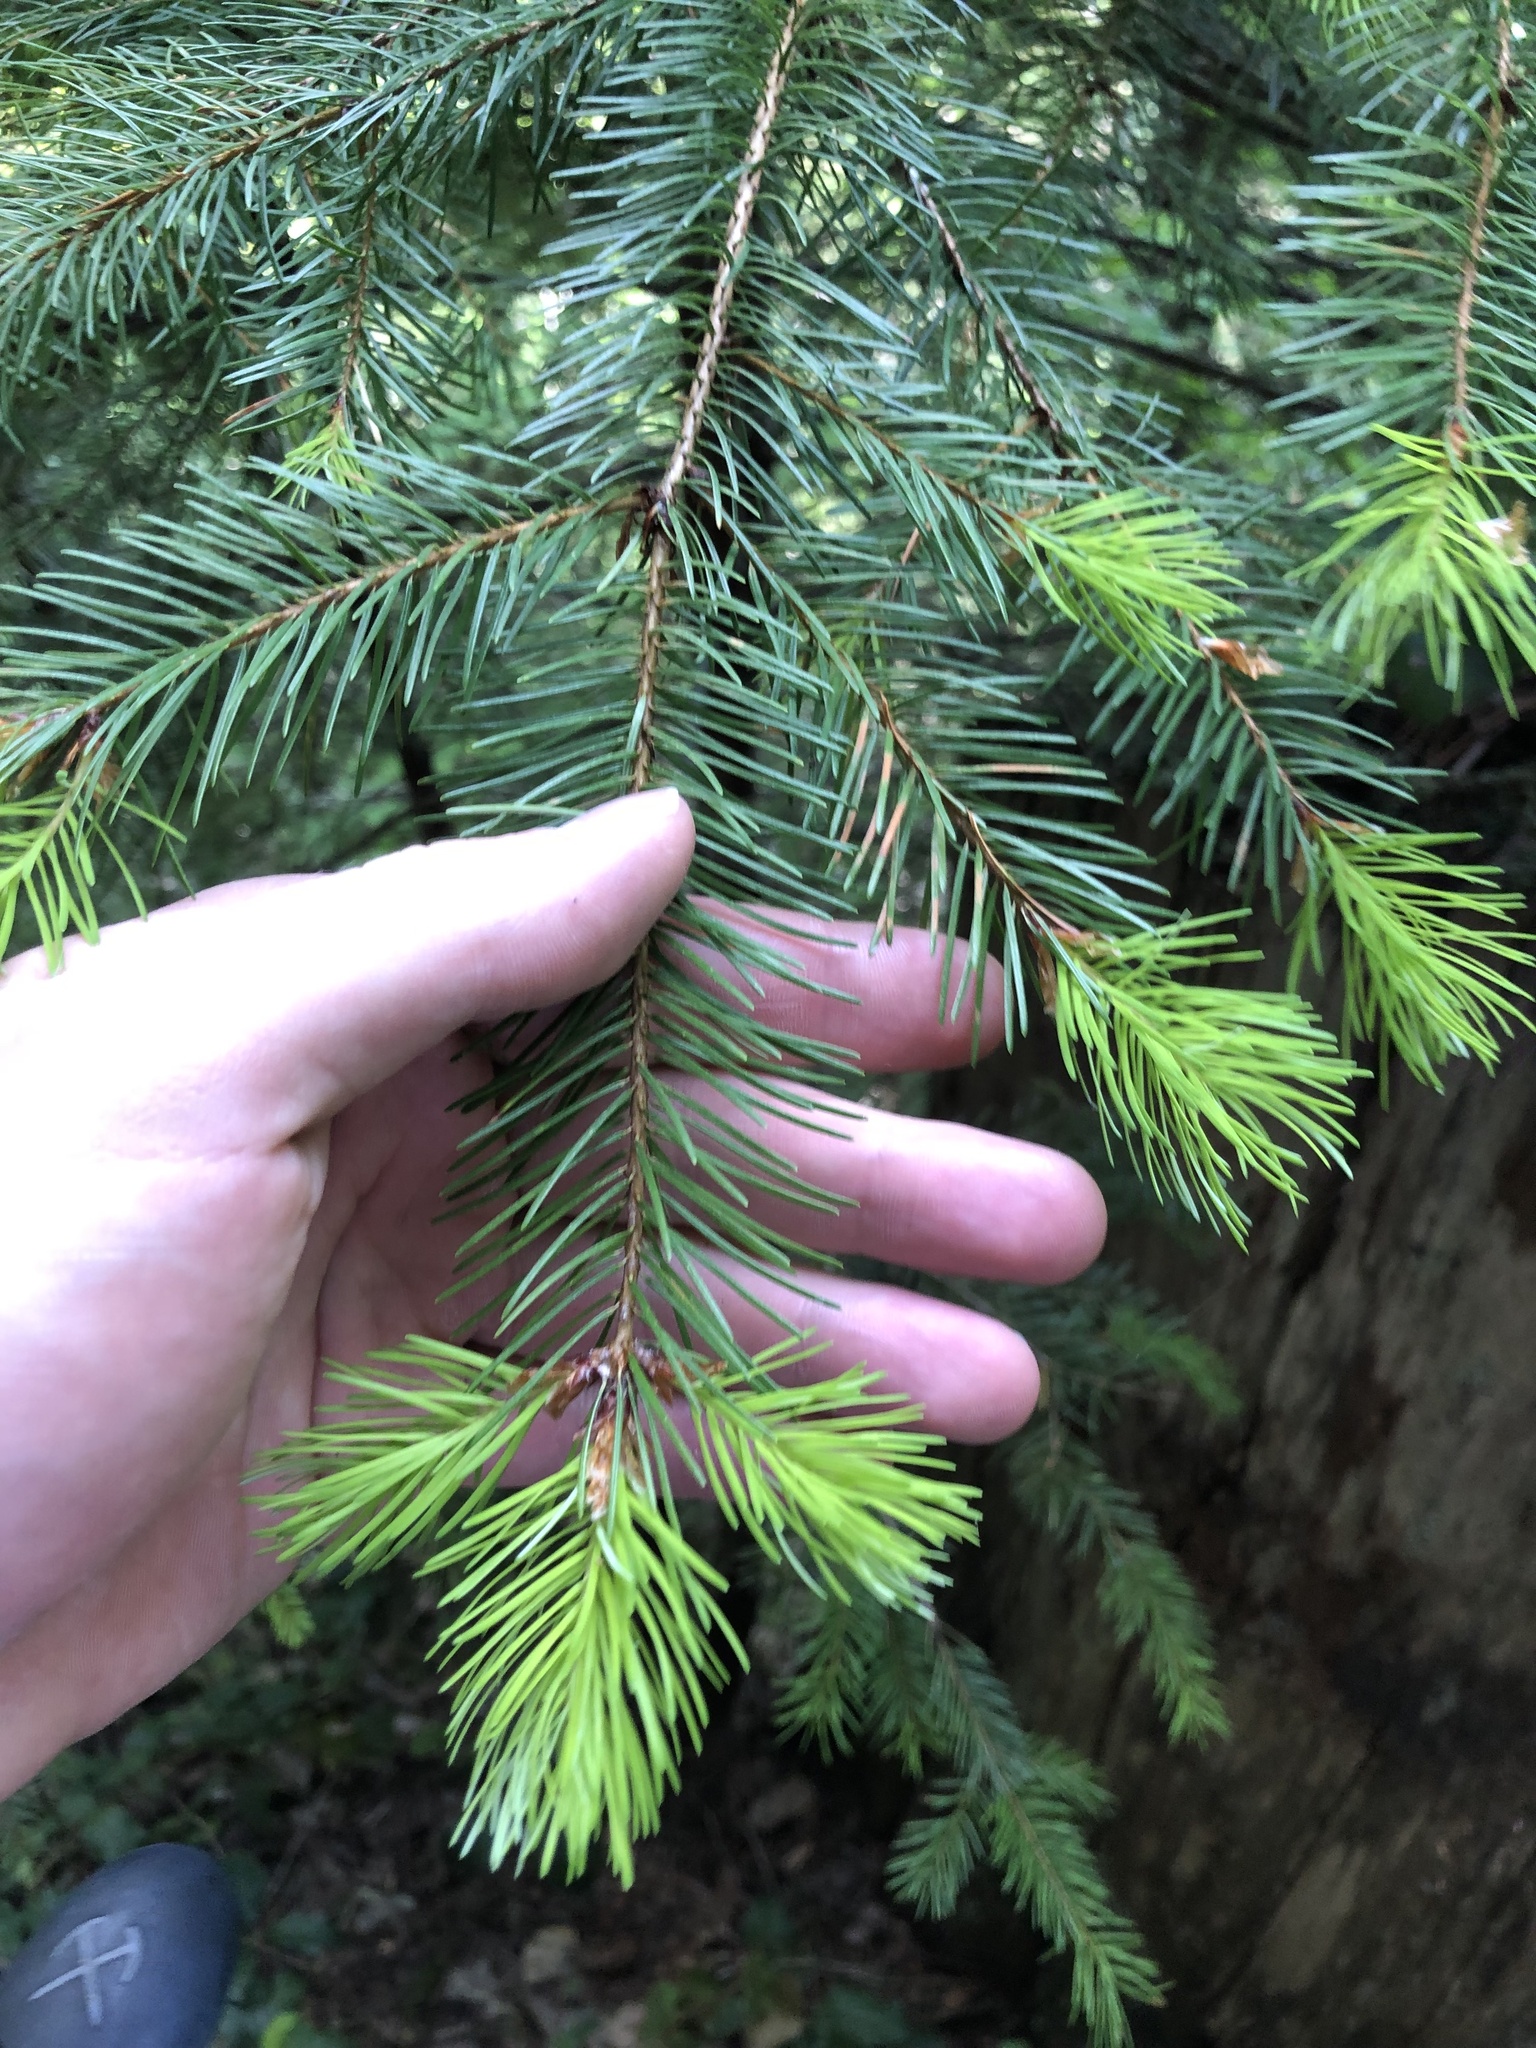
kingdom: Plantae
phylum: Tracheophyta
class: Pinopsida
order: Pinales
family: Pinaceae
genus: Pseudotsuga
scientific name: Pseudotsuga menziesii
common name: Douglas fir
